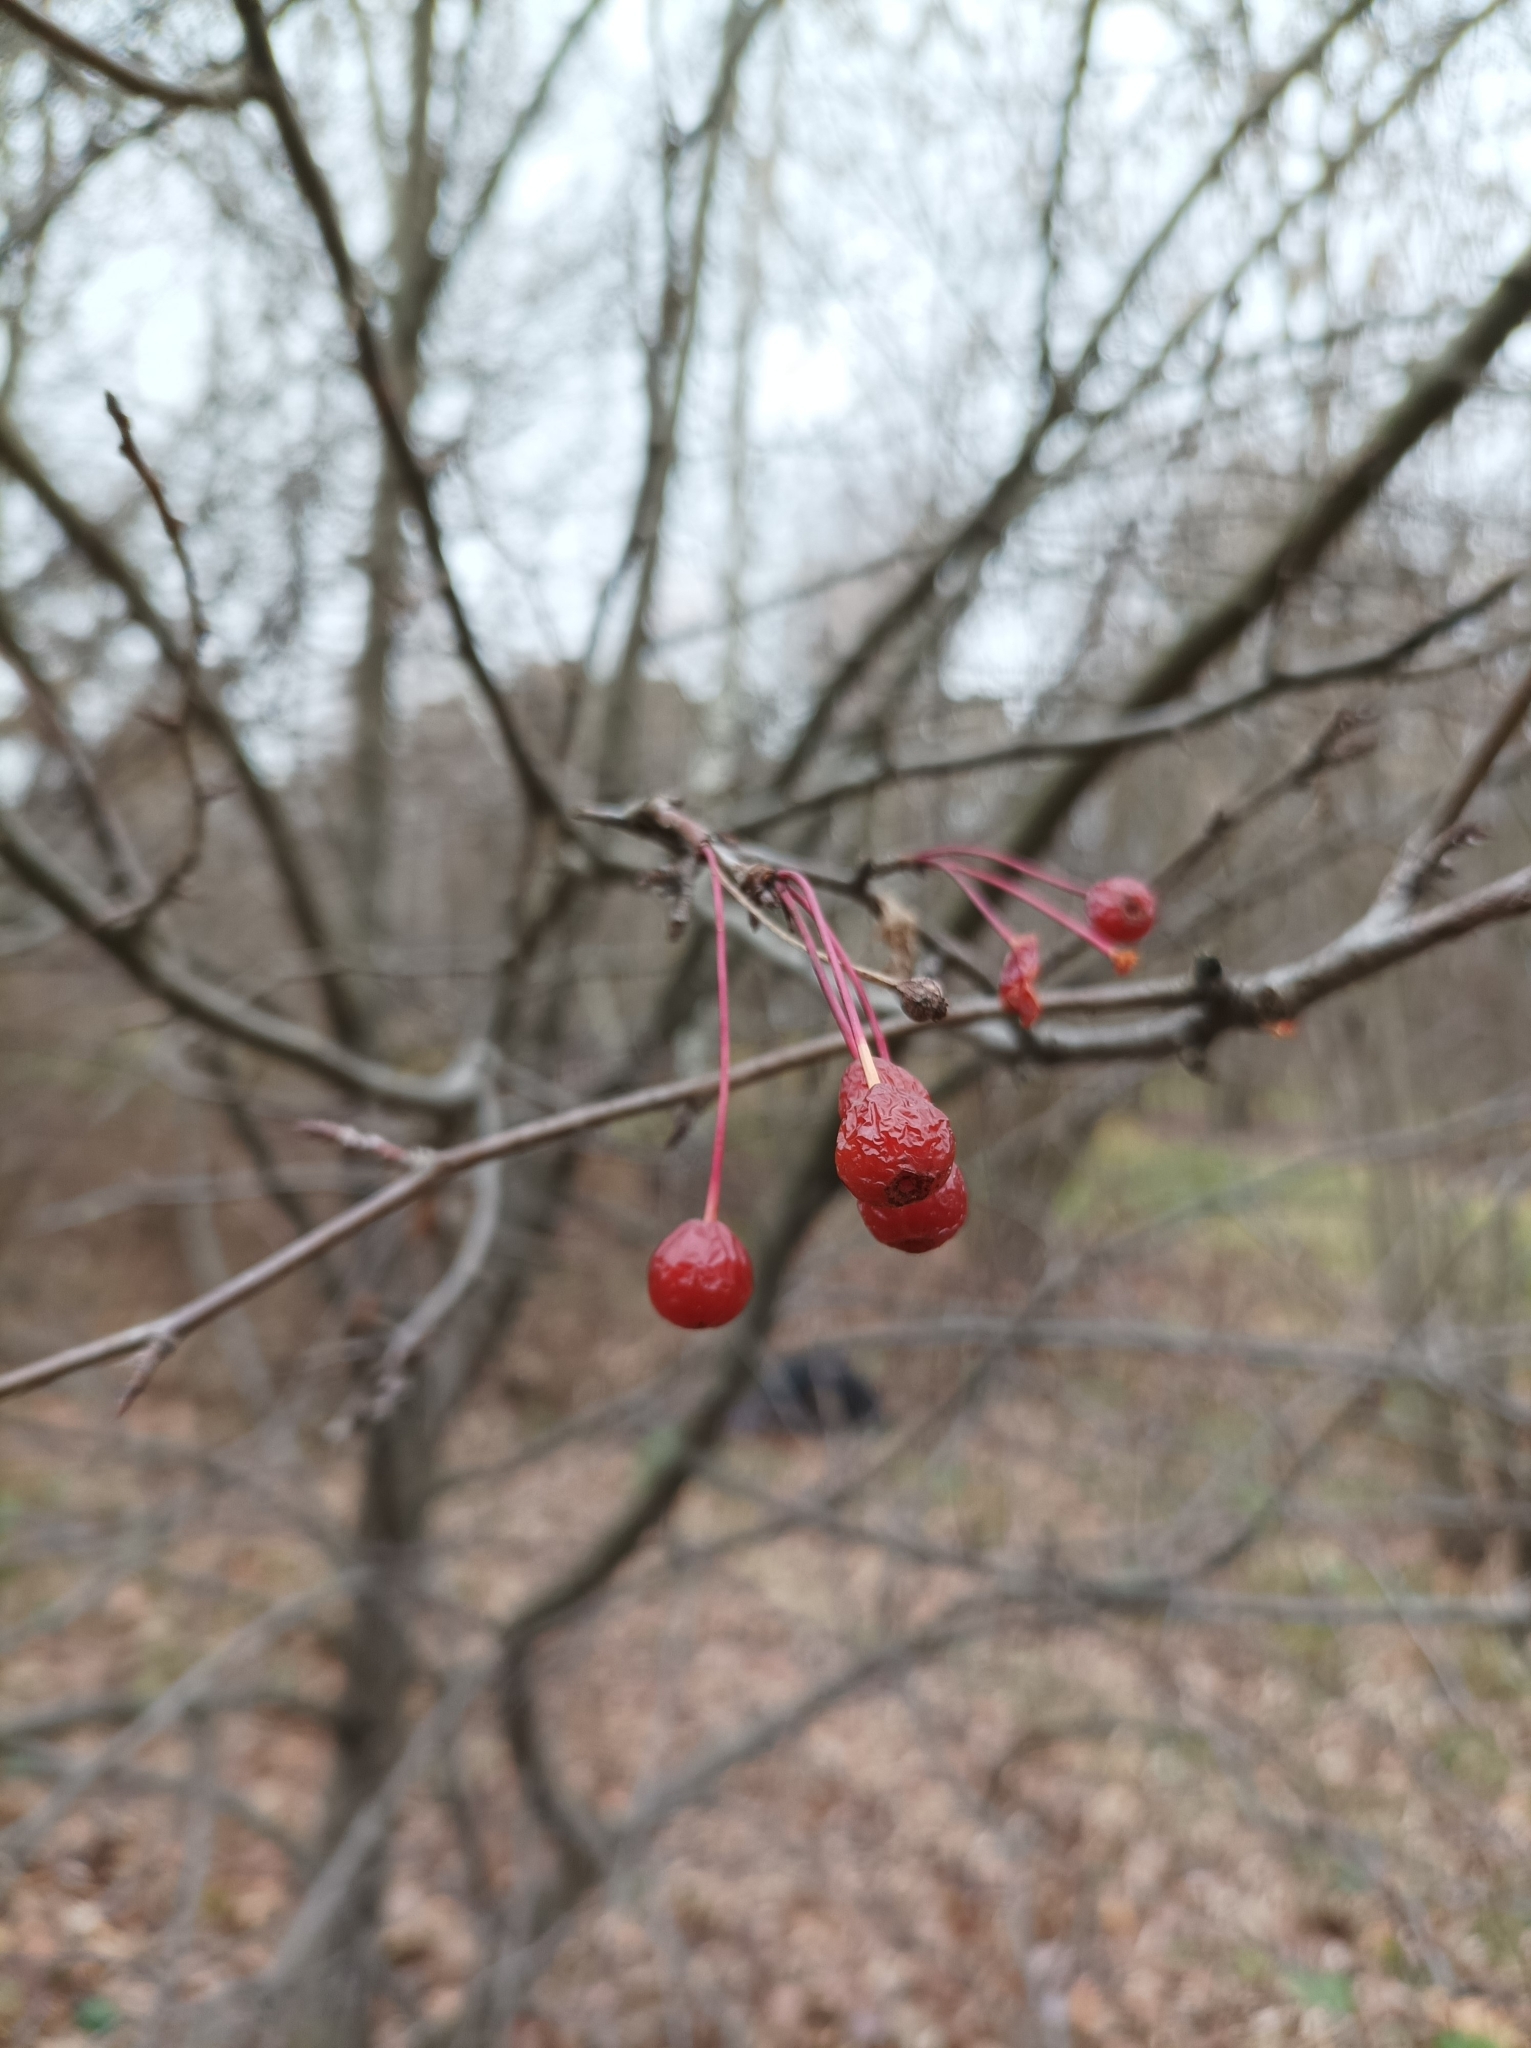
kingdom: Plantae
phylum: Tracheophyta
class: Magnoliopsida
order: Rosales
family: Rosaceae
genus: Malus
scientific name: Malus baccata
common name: Siberian crab
